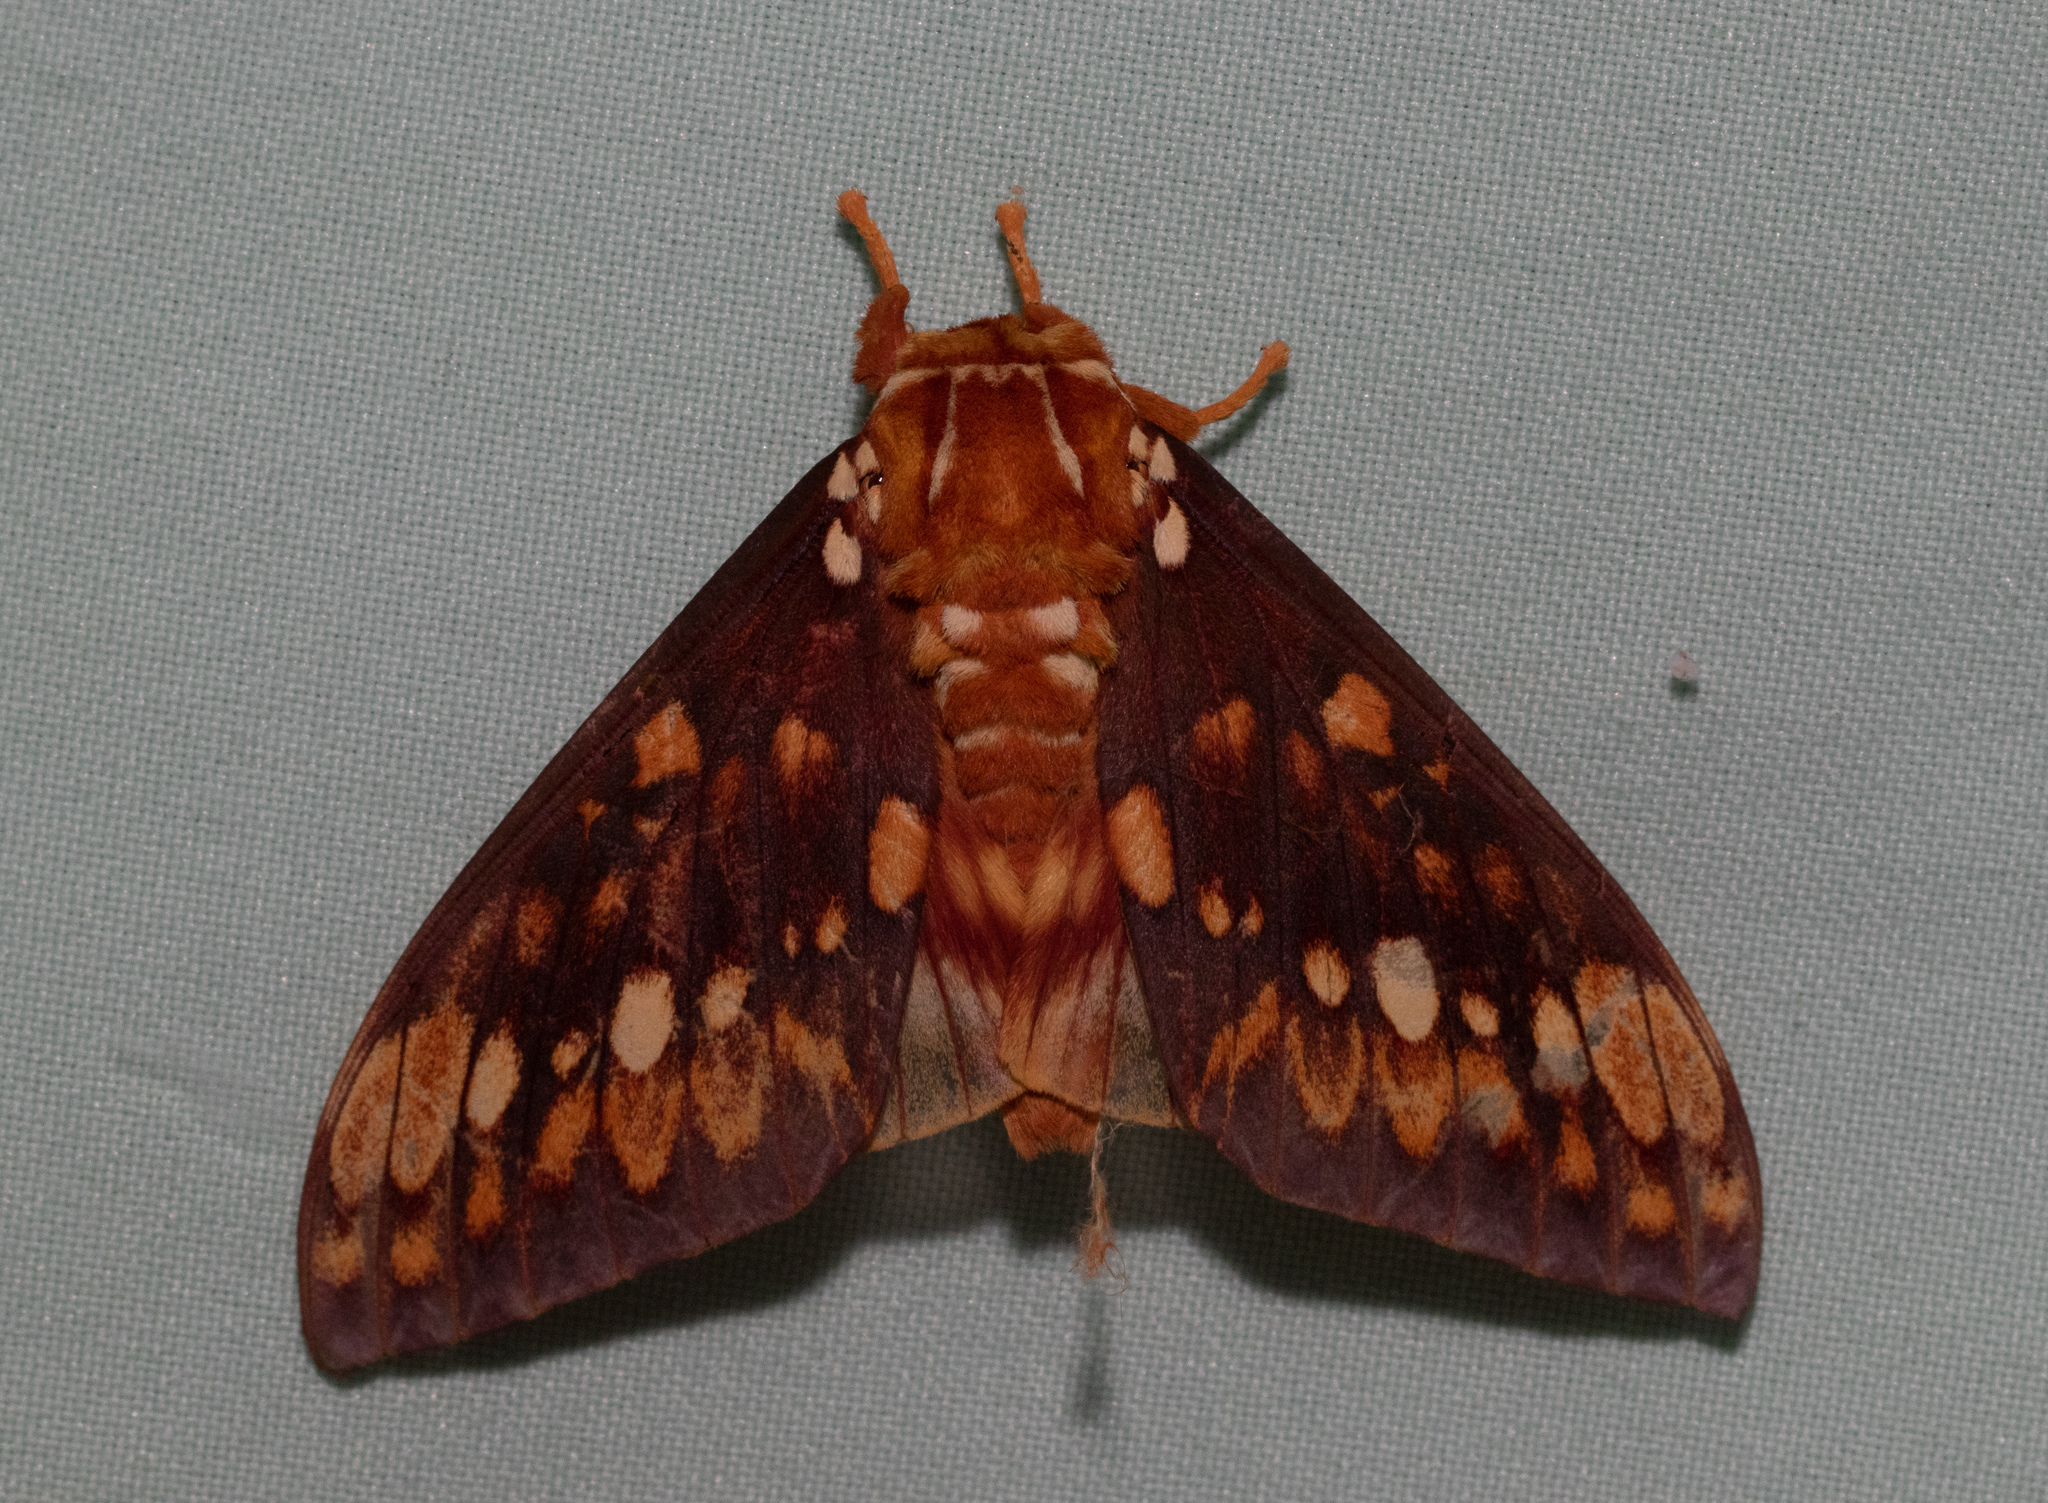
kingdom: Animalia
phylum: Arthropoda
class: Insecta
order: Lepidoptera
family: Saturniidae
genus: Citheronia
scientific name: Citheronia equatorialis
